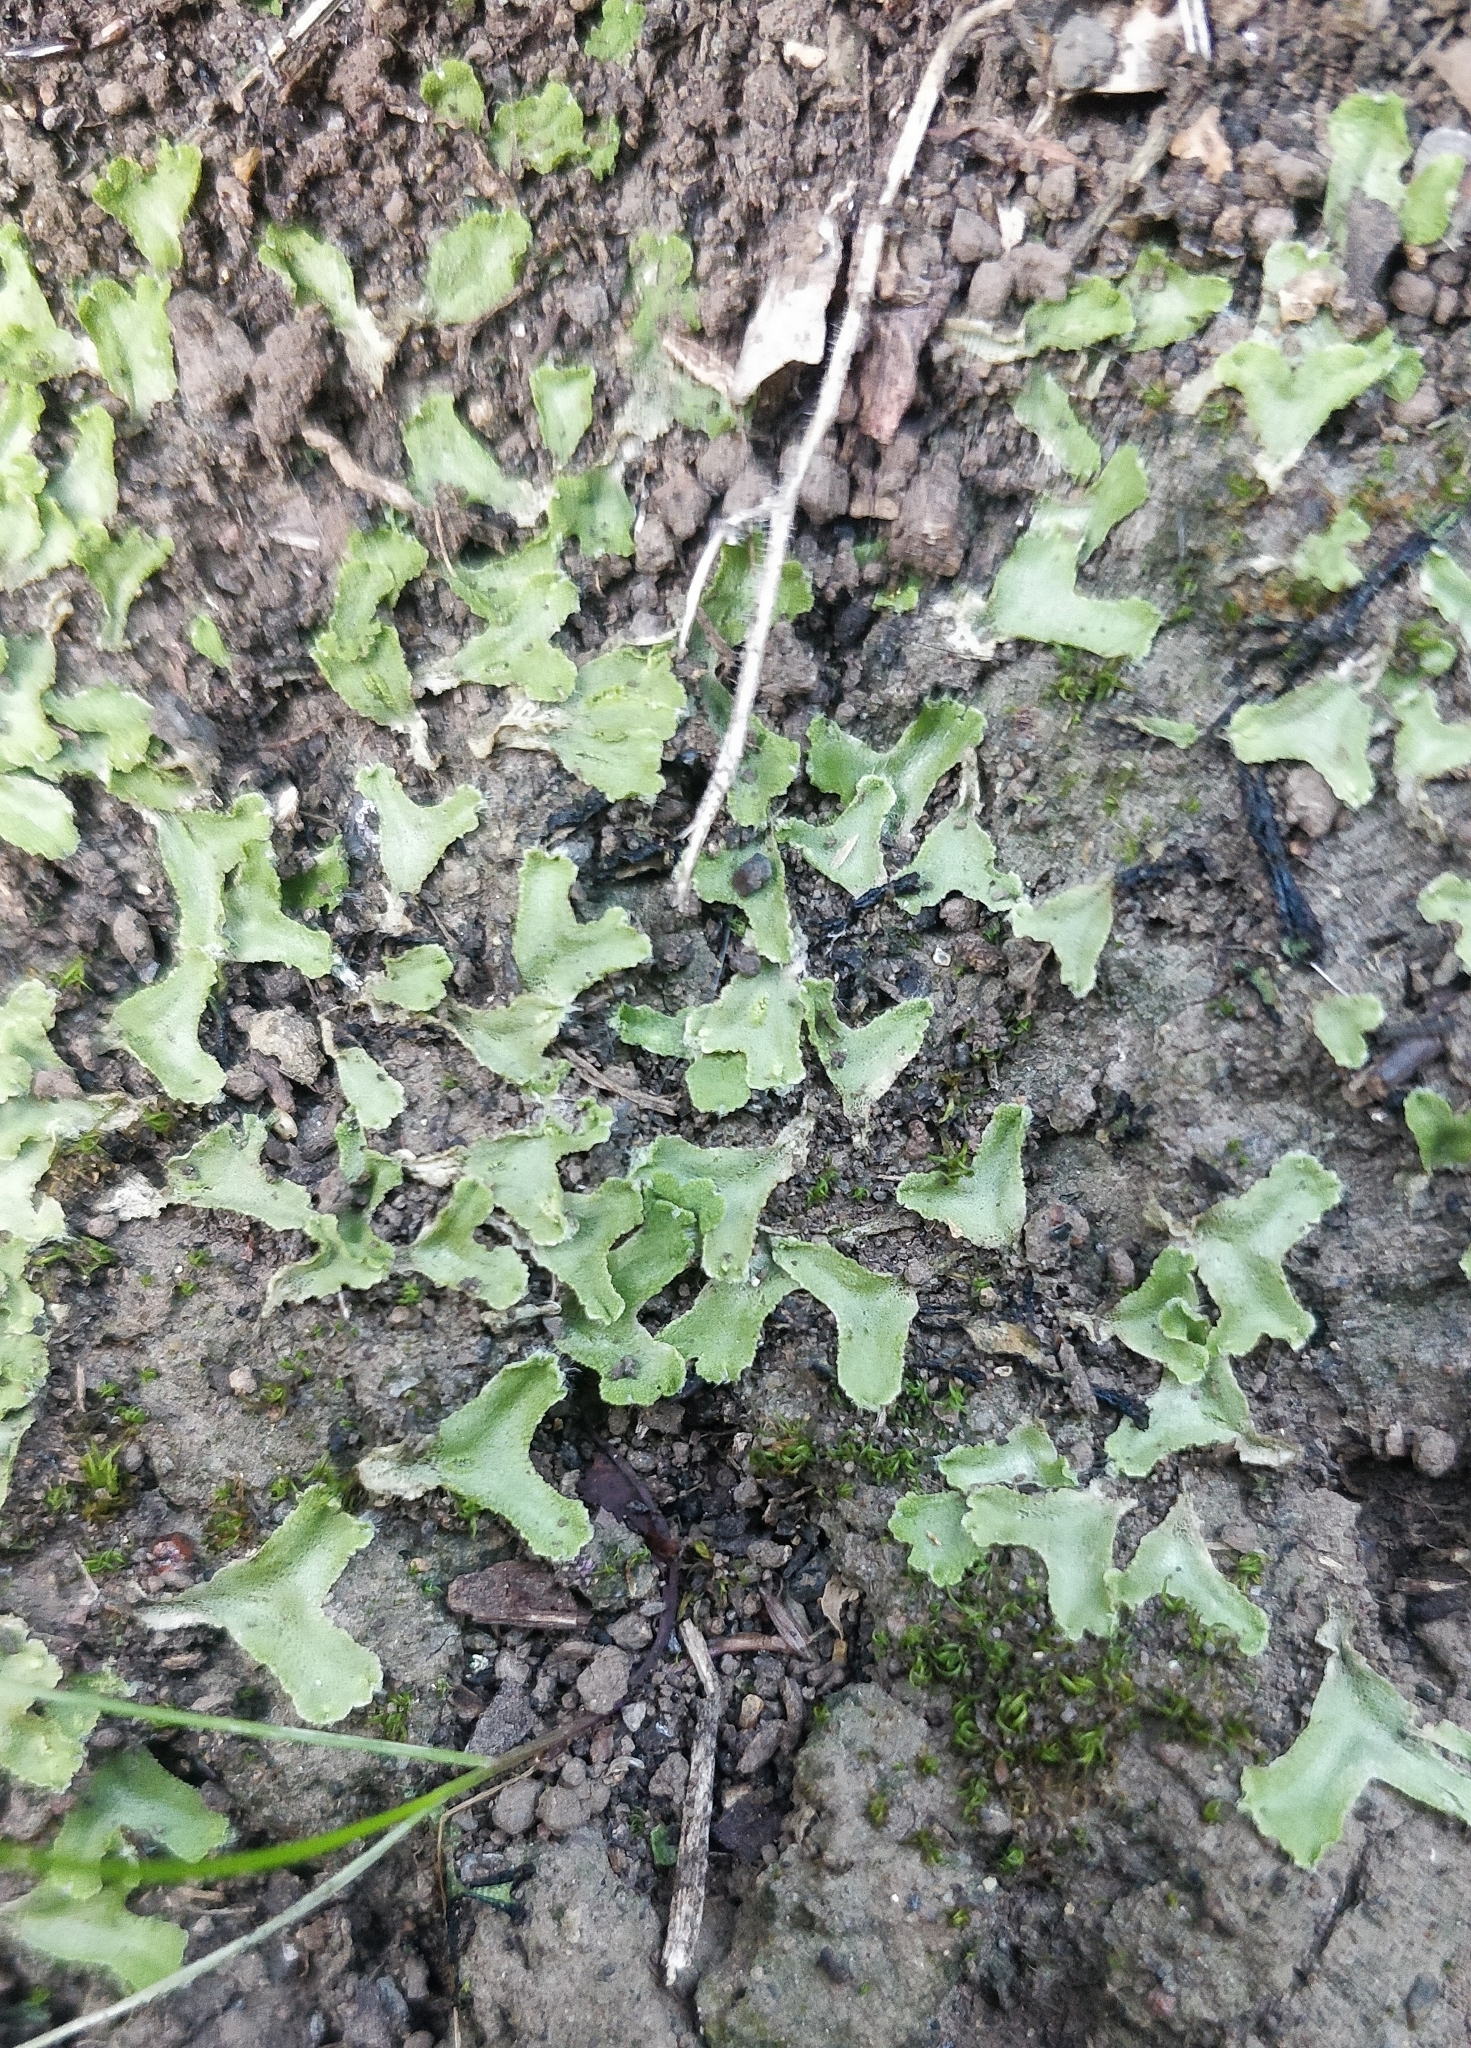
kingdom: Plantae
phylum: Marchantiophyta
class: Marchantiopsida
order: Marchantiales
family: Corsiniaceae
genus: Corsinia
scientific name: Corsinia coriandrina
